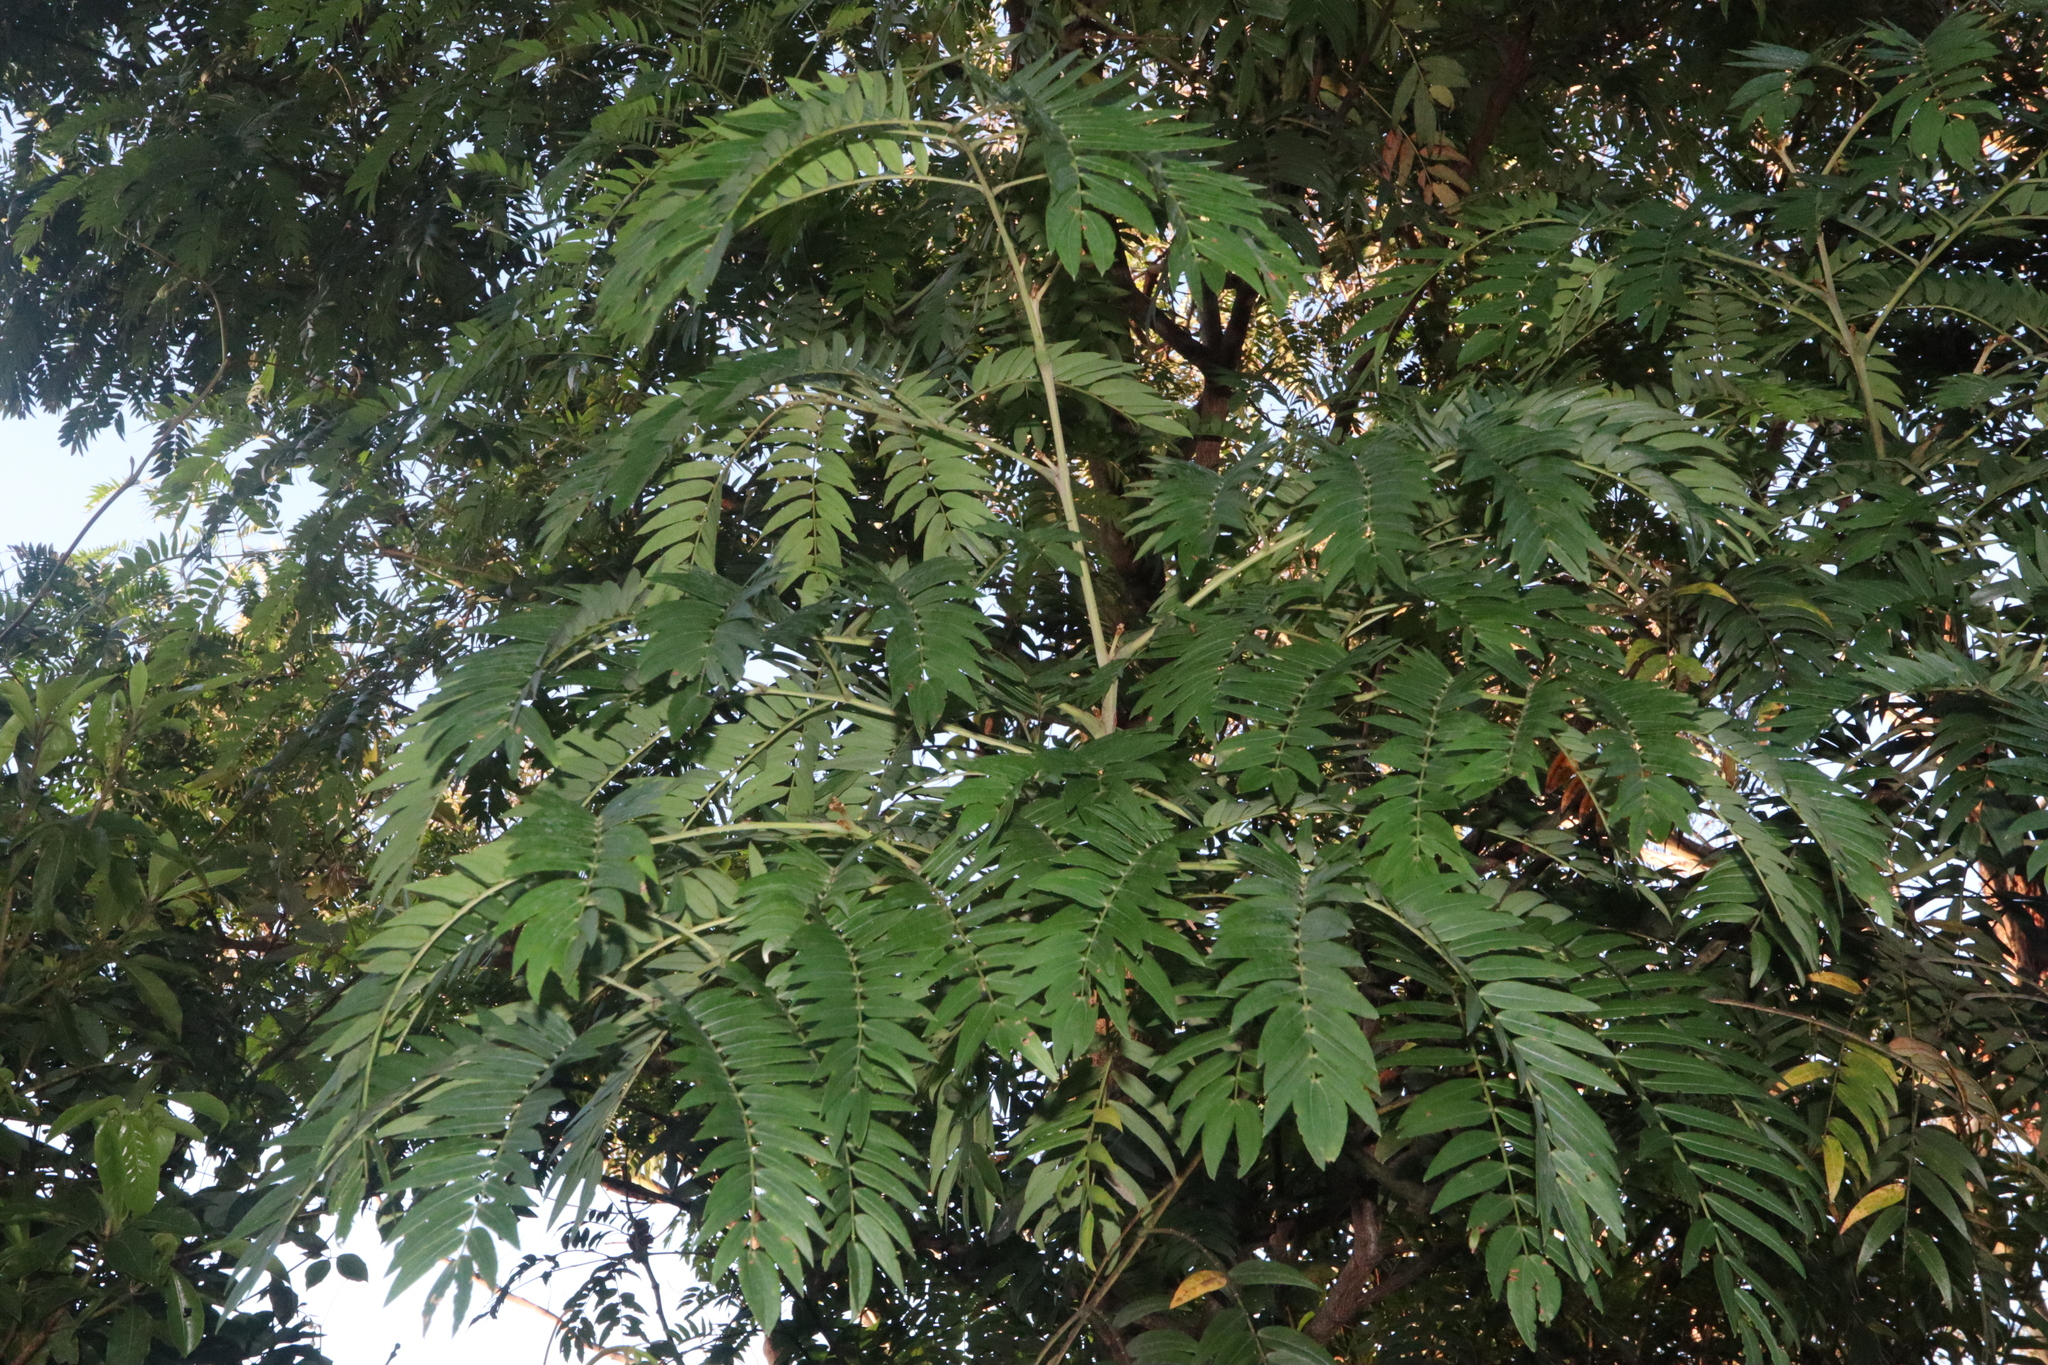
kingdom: Plantae
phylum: Tracheophyta
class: Magnoliopsida
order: Fabales
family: Fabaceae
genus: Acacia
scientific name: Acacia elata
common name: Cedar wattle
